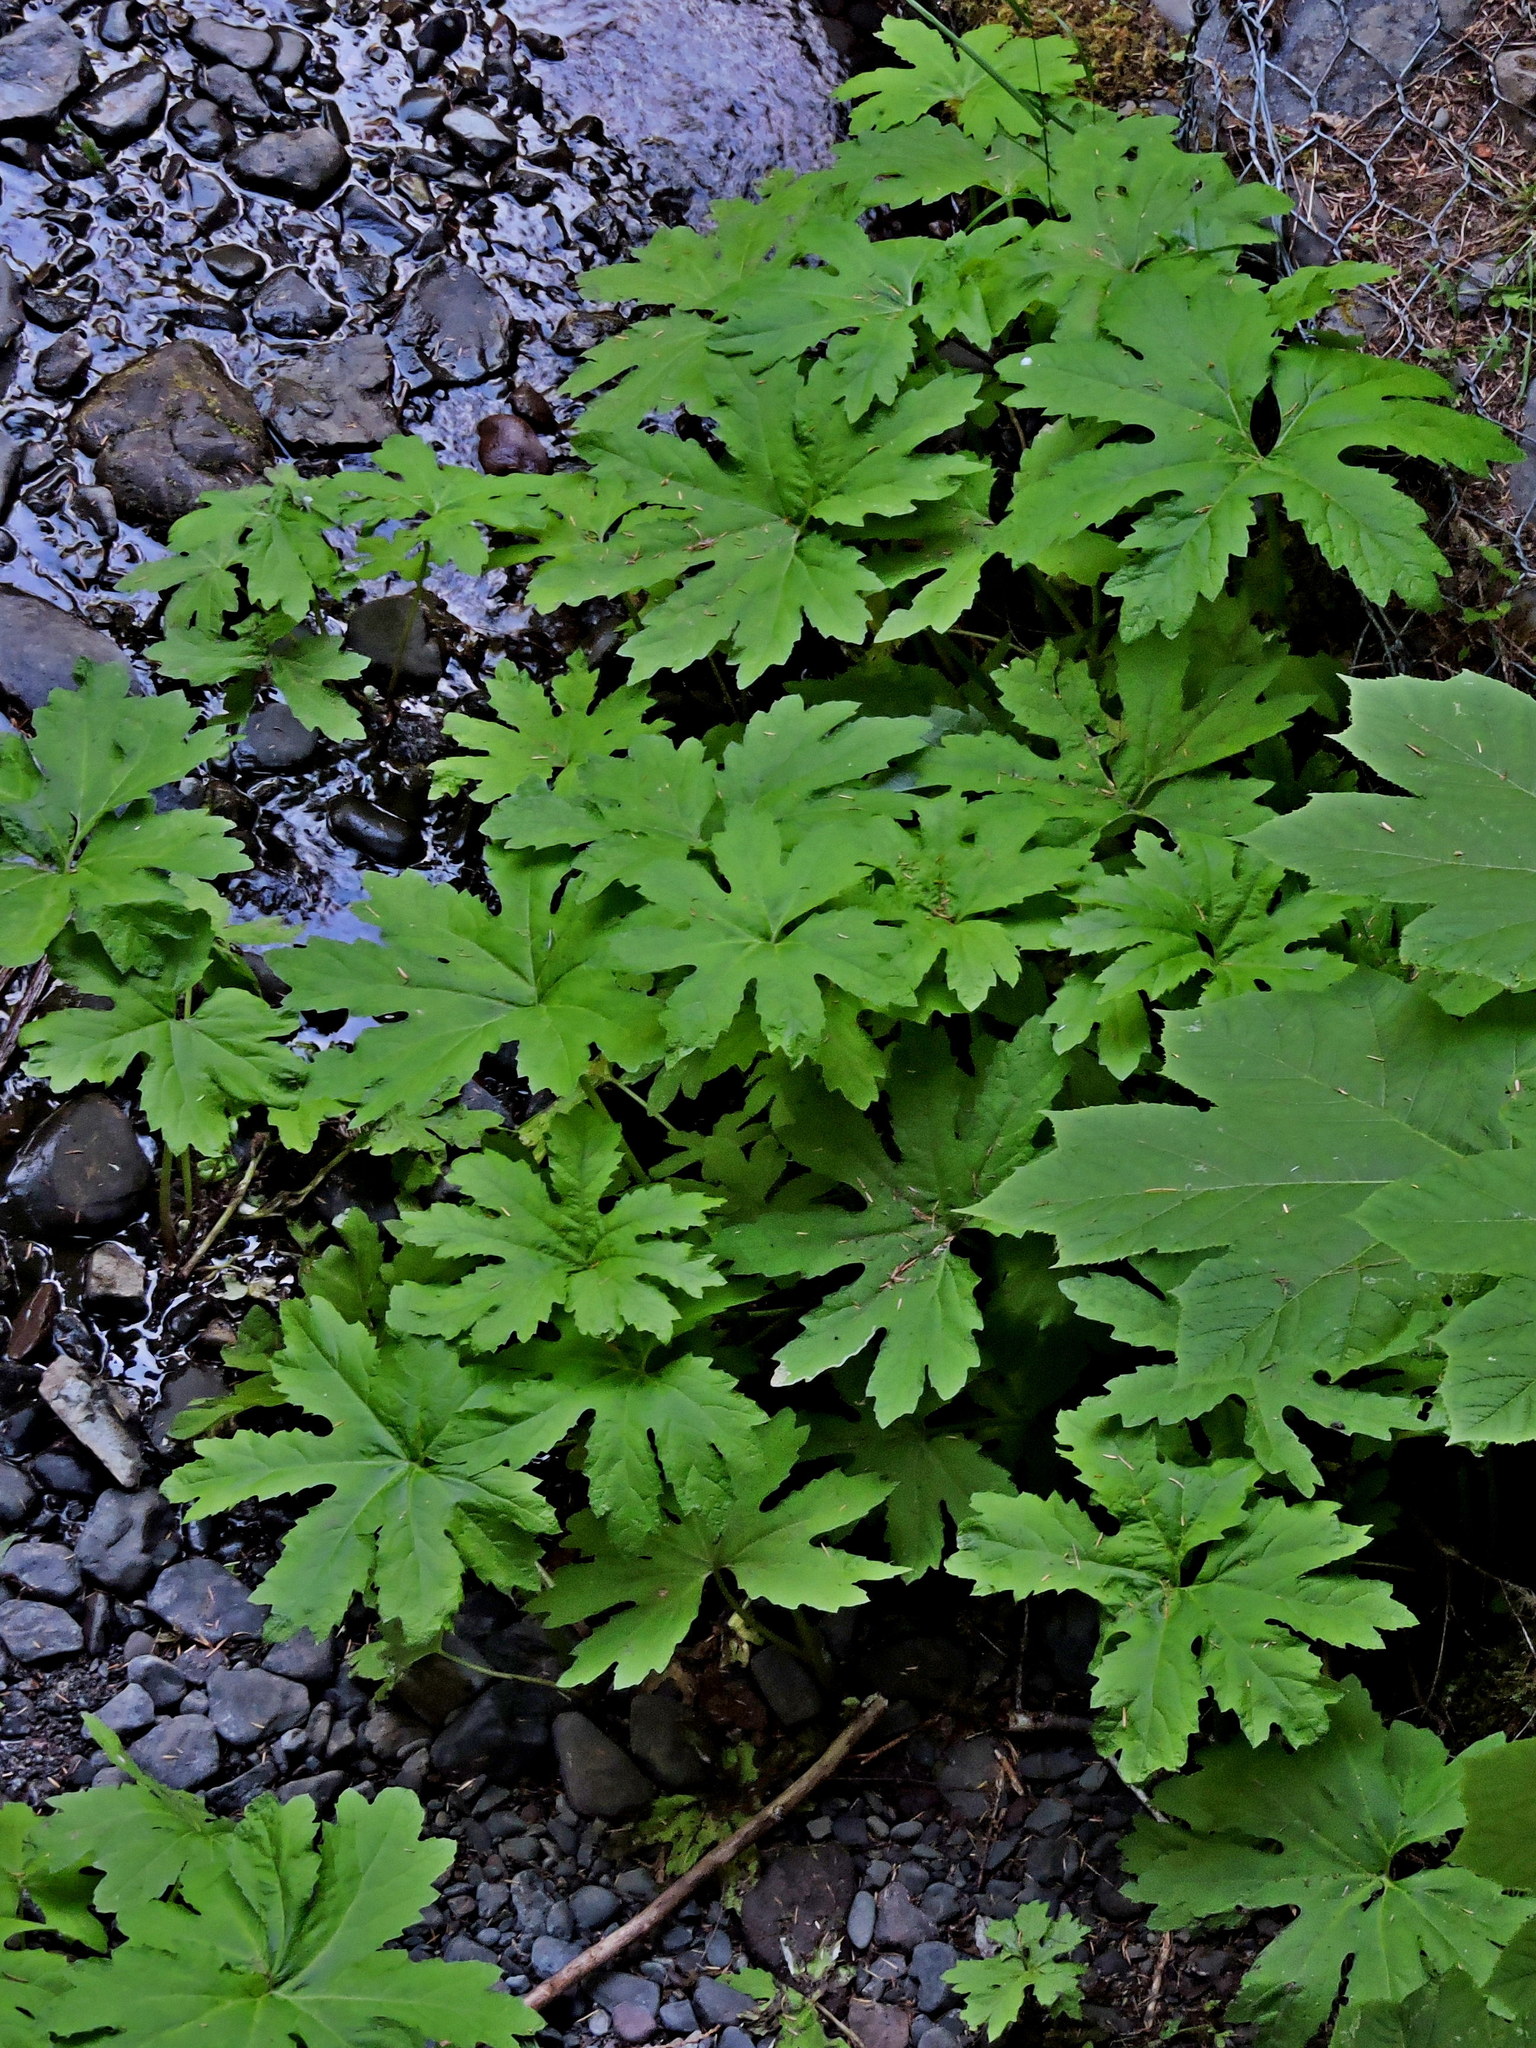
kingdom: Plantae
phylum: Tracheophyta
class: Magnoliopsida
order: Asterales
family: Asteraceae
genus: Petasites
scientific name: Petasites frigidus
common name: Arctic butterbur
